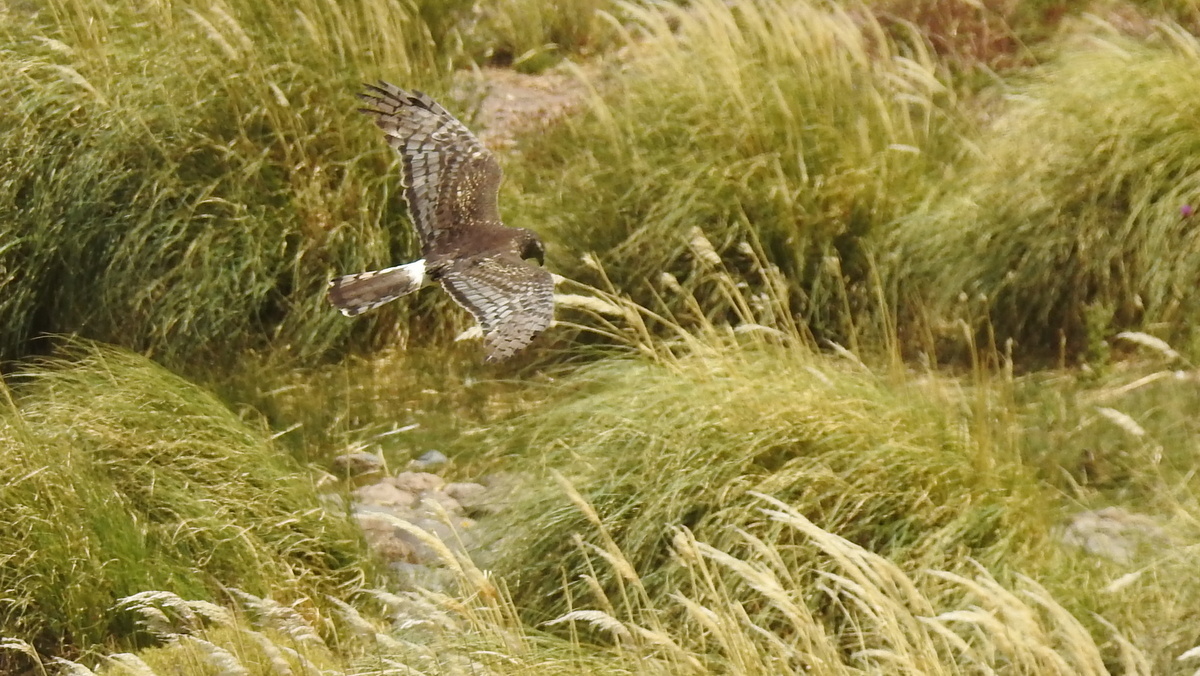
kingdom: Animalia
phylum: Chordata
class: Aves
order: Accipitriformes
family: Accipitridae
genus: Circus
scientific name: Circus cinereus
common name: Cinereous harrier
